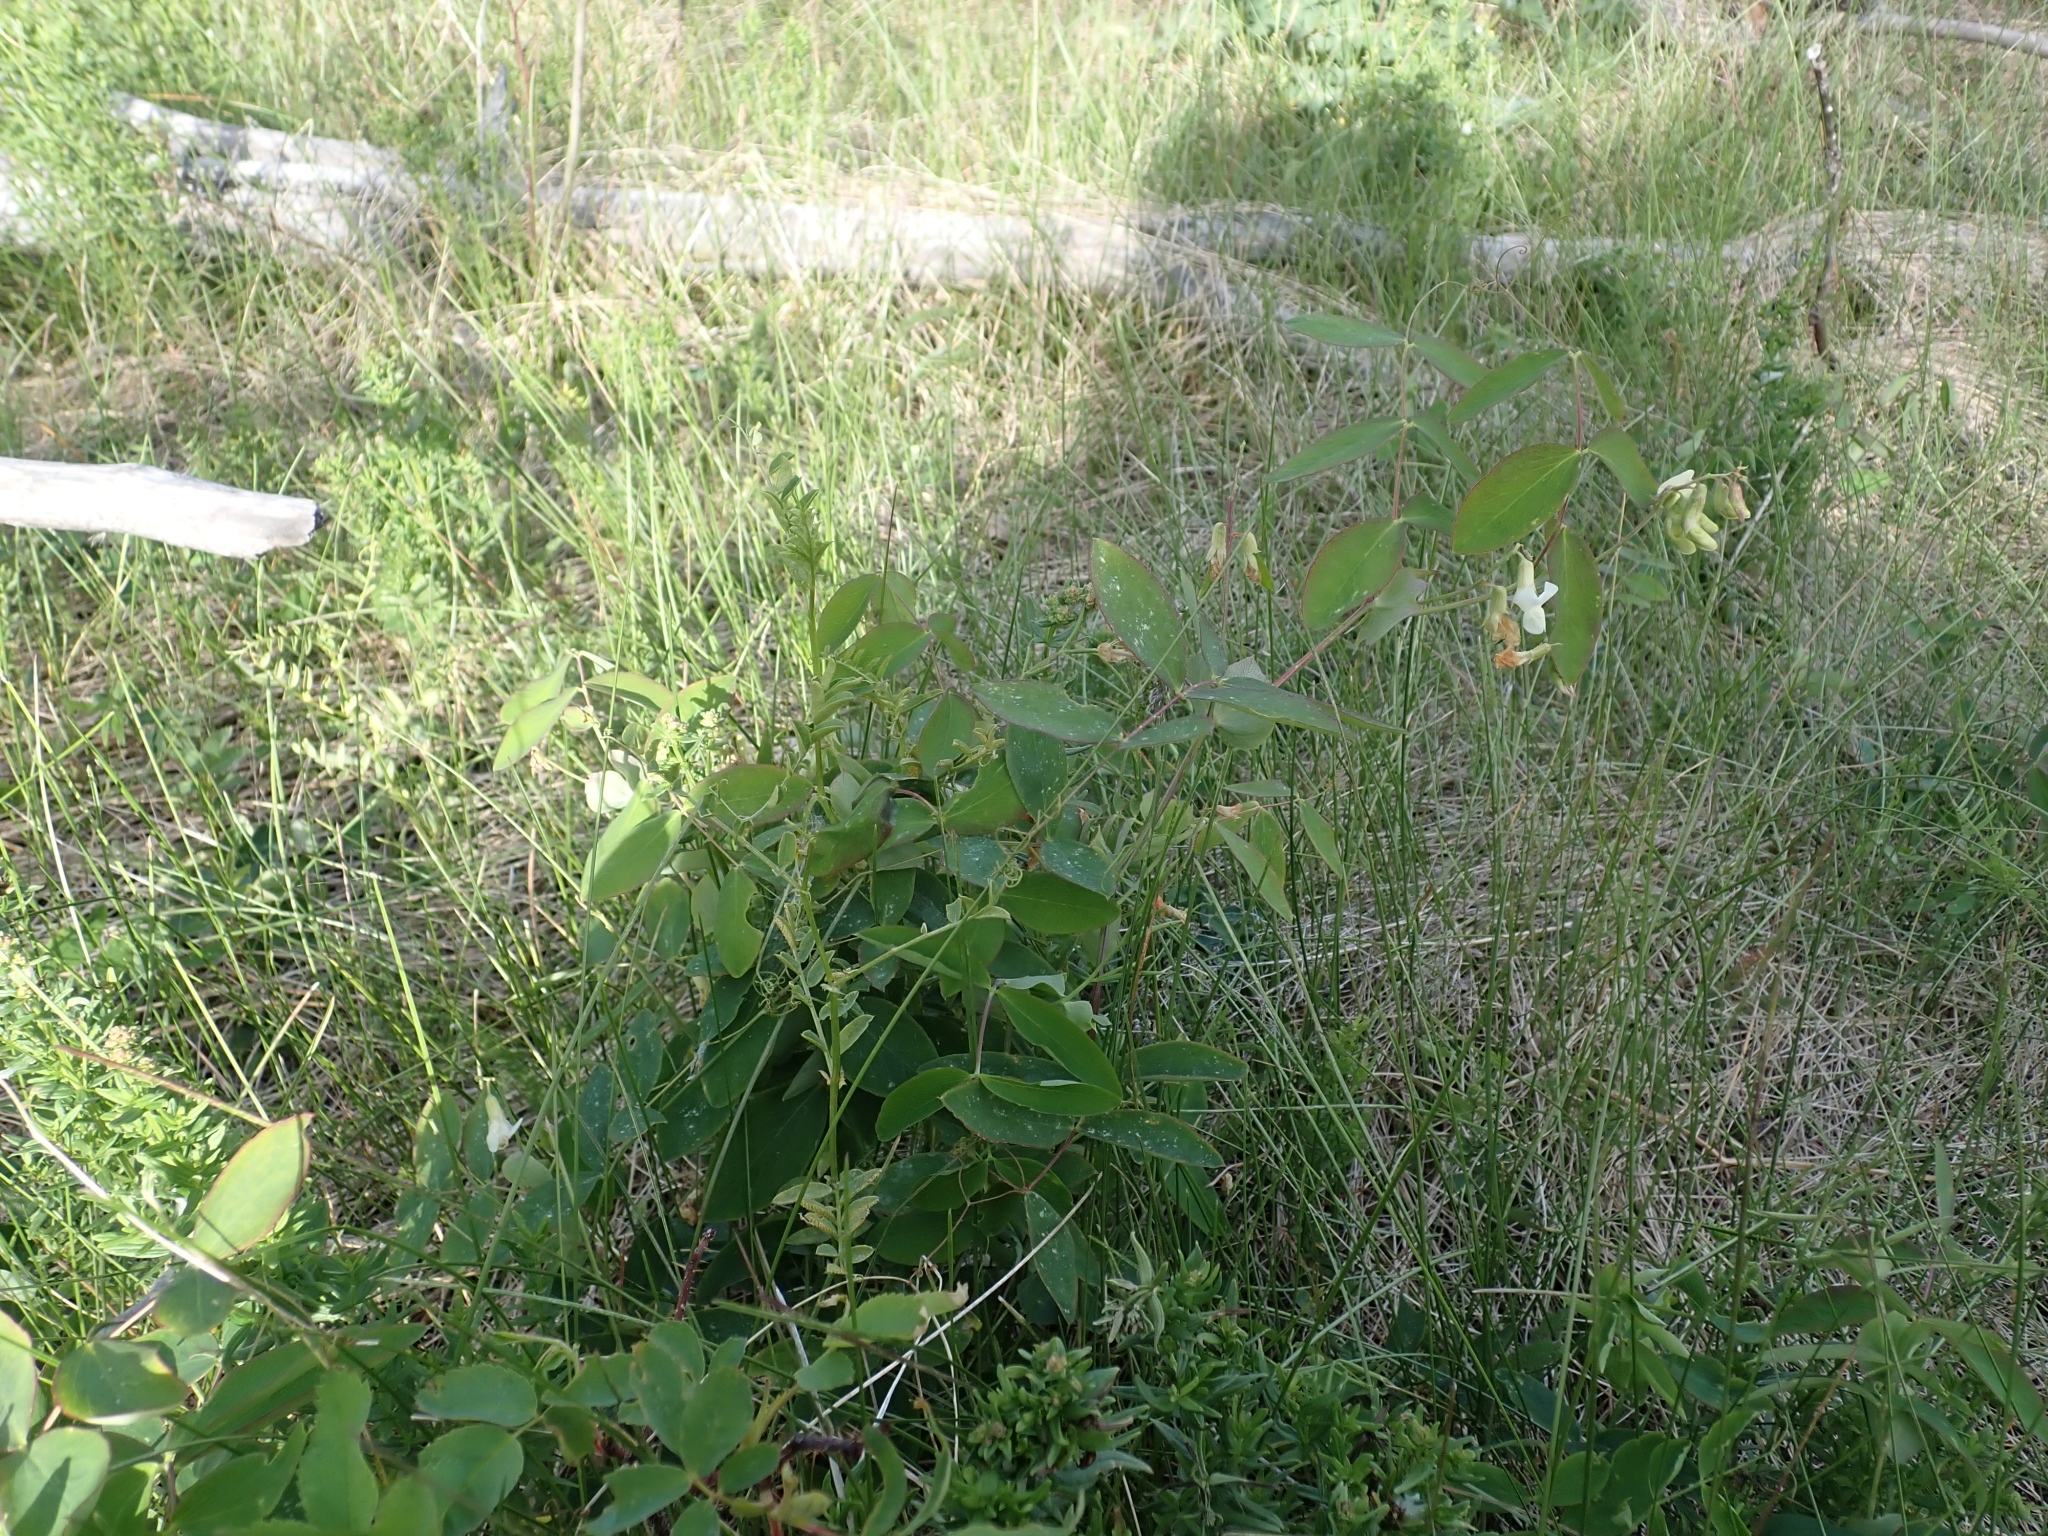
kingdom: Plantae
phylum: Tracheophyta
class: Magnoliopsida
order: Fabales
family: Fabaceae
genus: Lathyrus
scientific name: Lathyrus ochroleucus
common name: Pale vetchling
